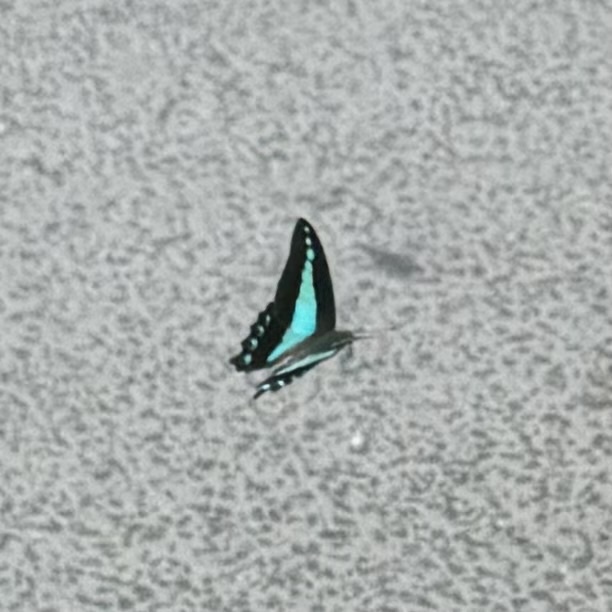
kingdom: Animalia
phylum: Arthropoda
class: Insecta
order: Lepidoptera
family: Papilionidae
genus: Graphium
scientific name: Graphium
